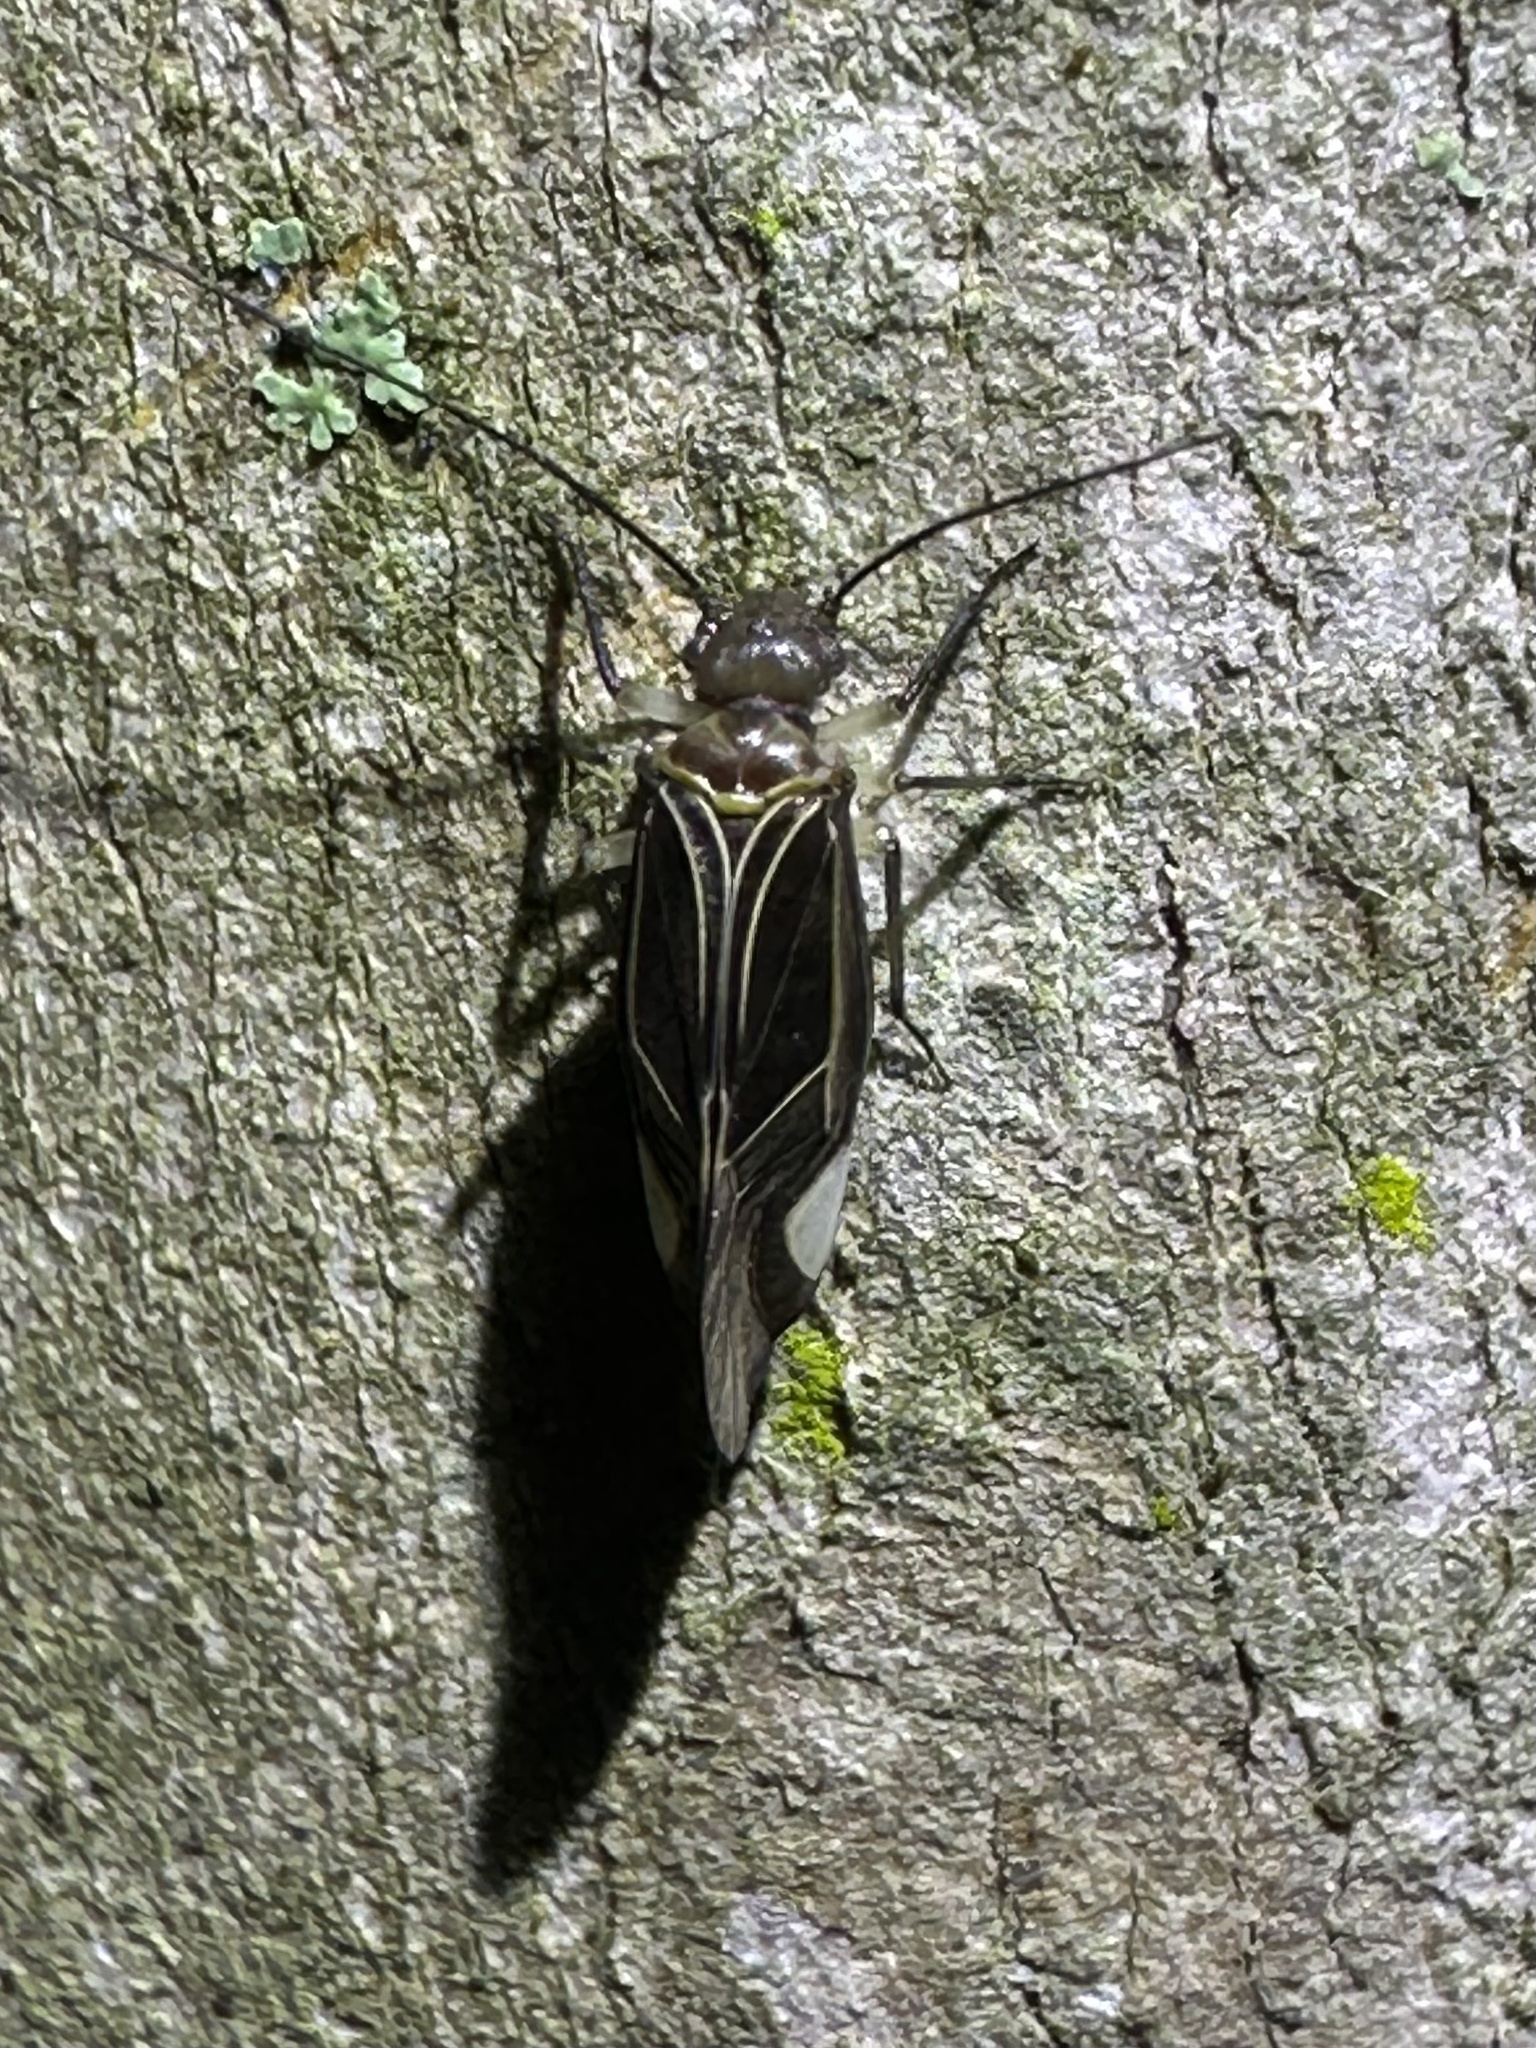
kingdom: Animalia
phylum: Arthropoda
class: Insecta
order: Psocodea
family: Psocidae
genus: Cerastipsocus
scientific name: Cerastipsocus venosus
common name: Tree cattle
